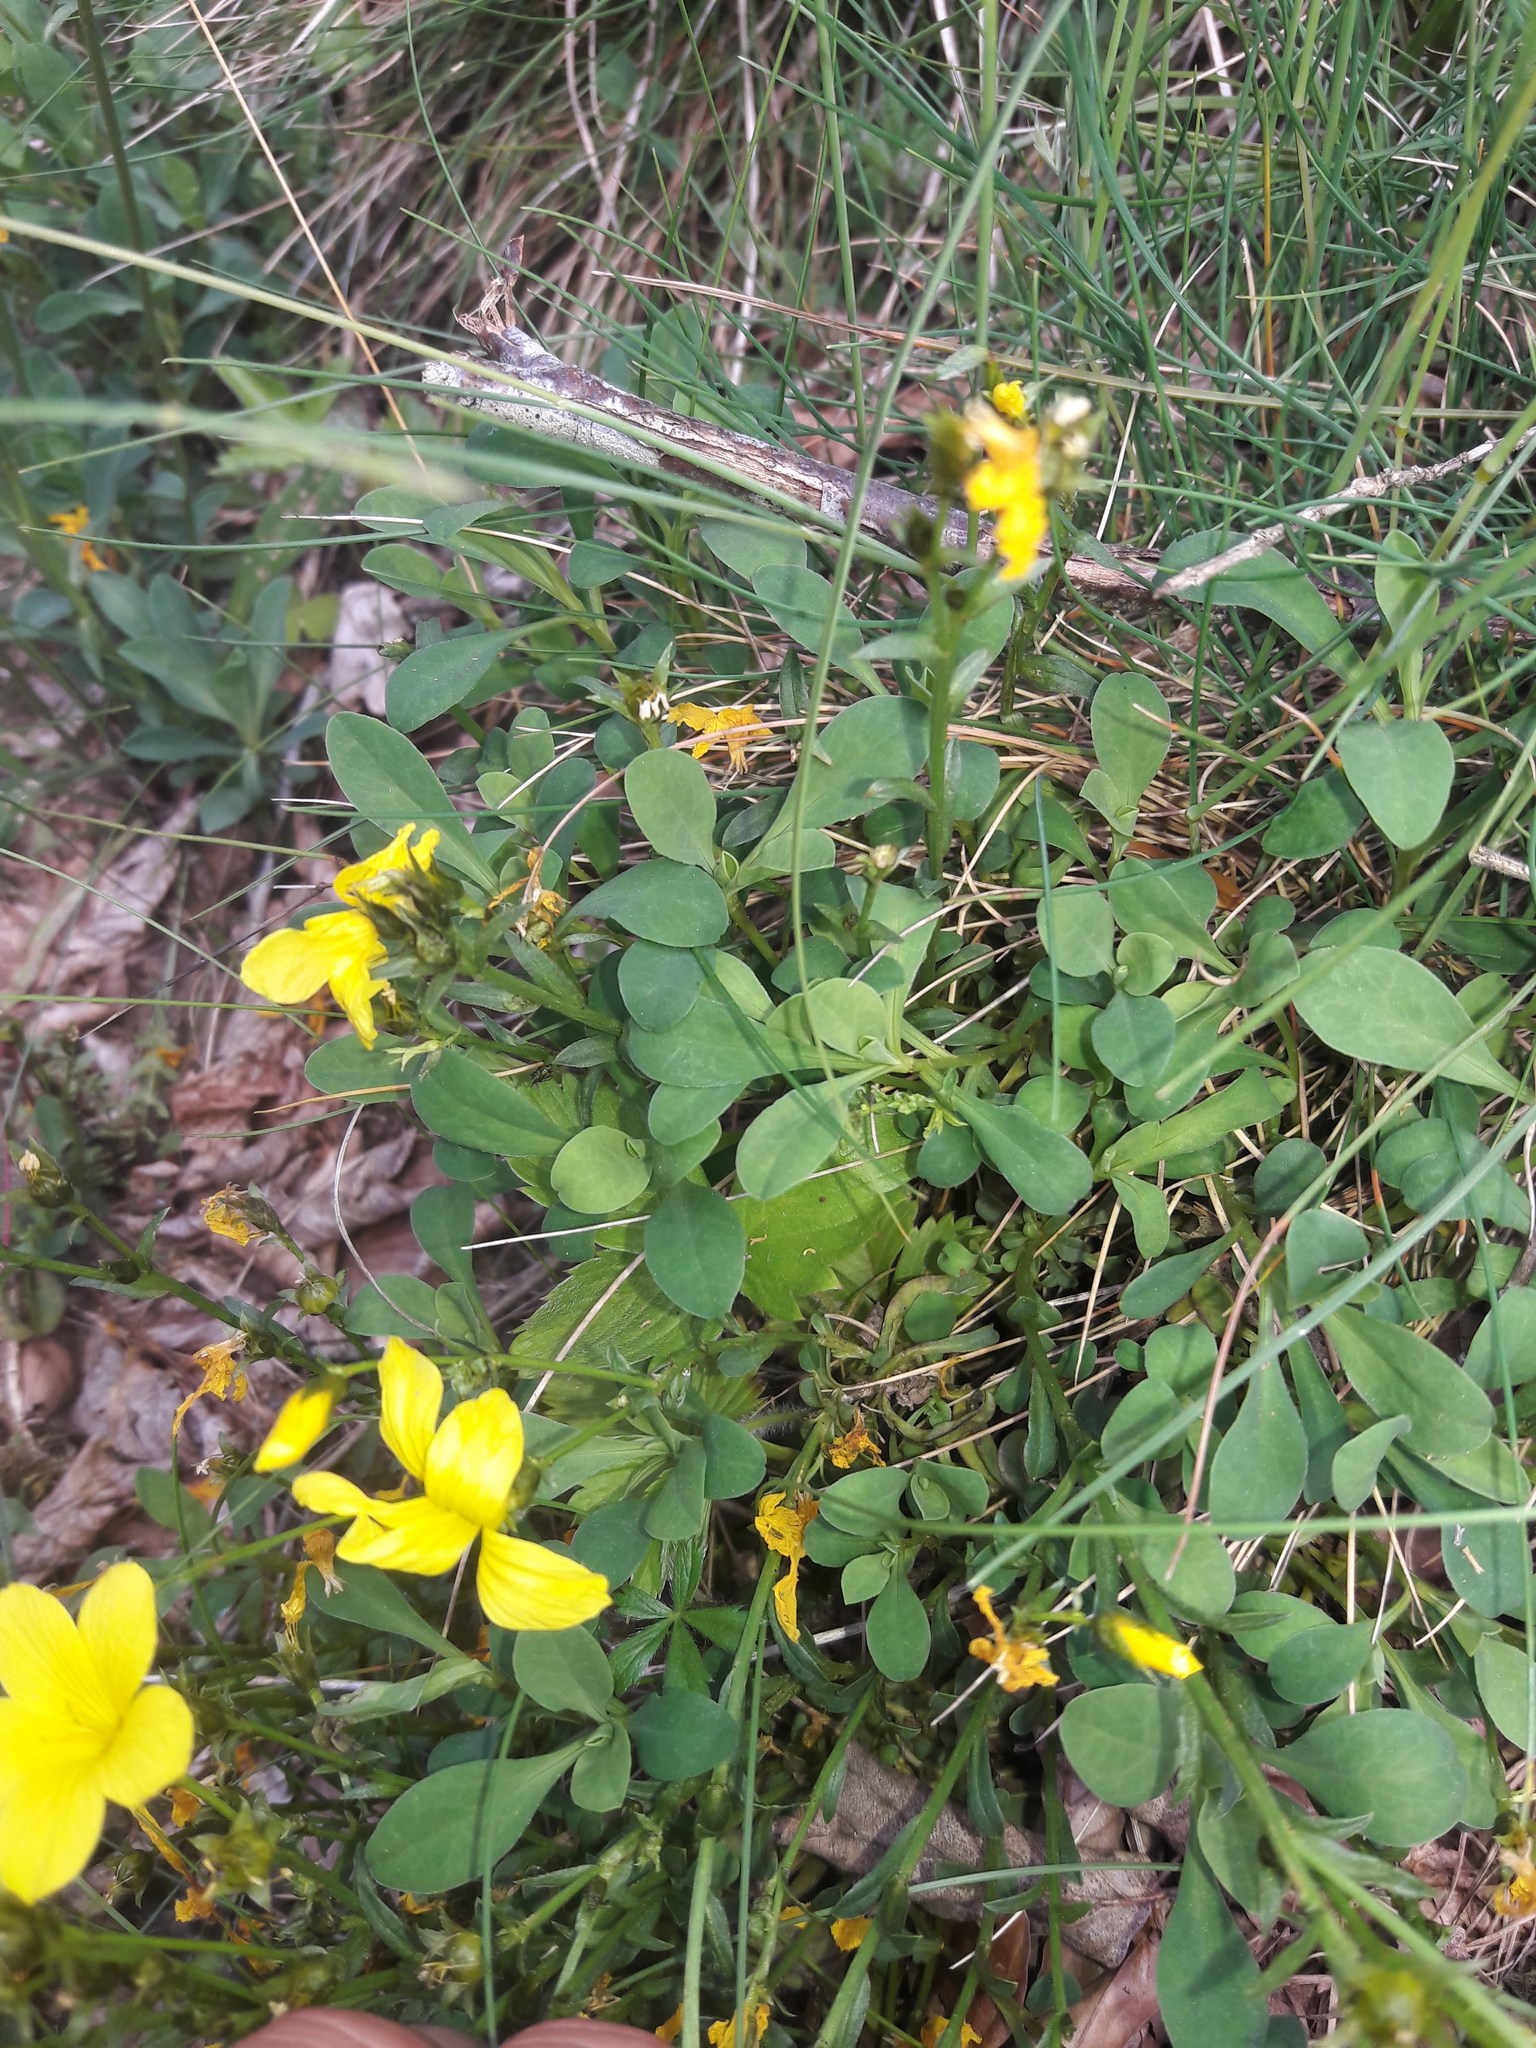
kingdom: Plantae
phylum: Tracheophyta
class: Magnoliopsida
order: Malpighiales
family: Linaceae
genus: Linum
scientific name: Linum campanulatum
